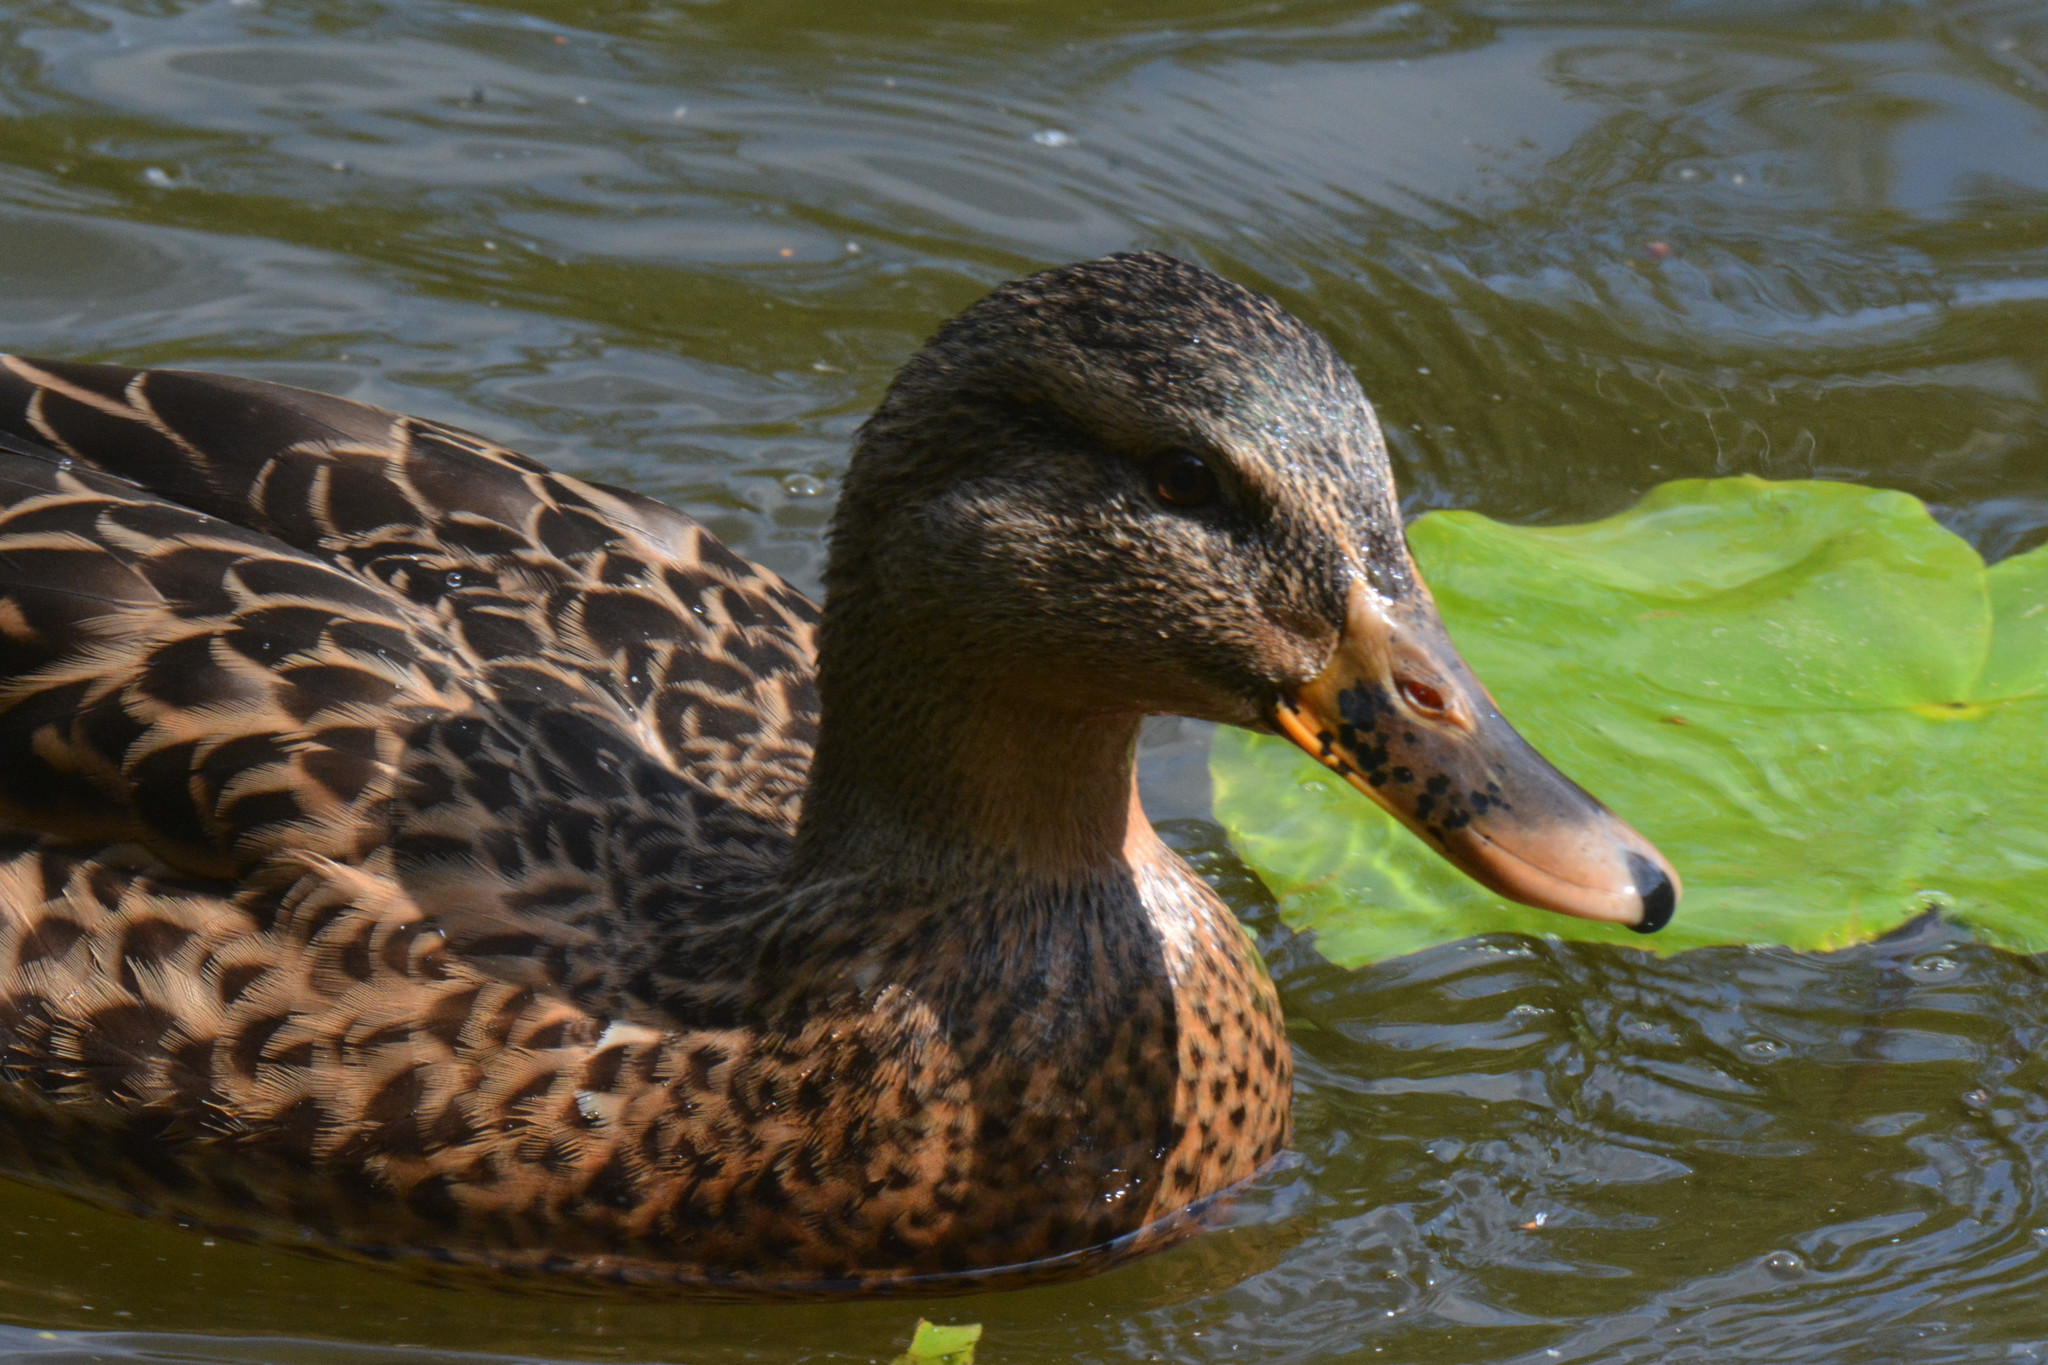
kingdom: Animalia
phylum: Chordata
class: Aves
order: Anseriformes
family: Anatidae
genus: Anas
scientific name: Anas platyrhynchos
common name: Mallard
